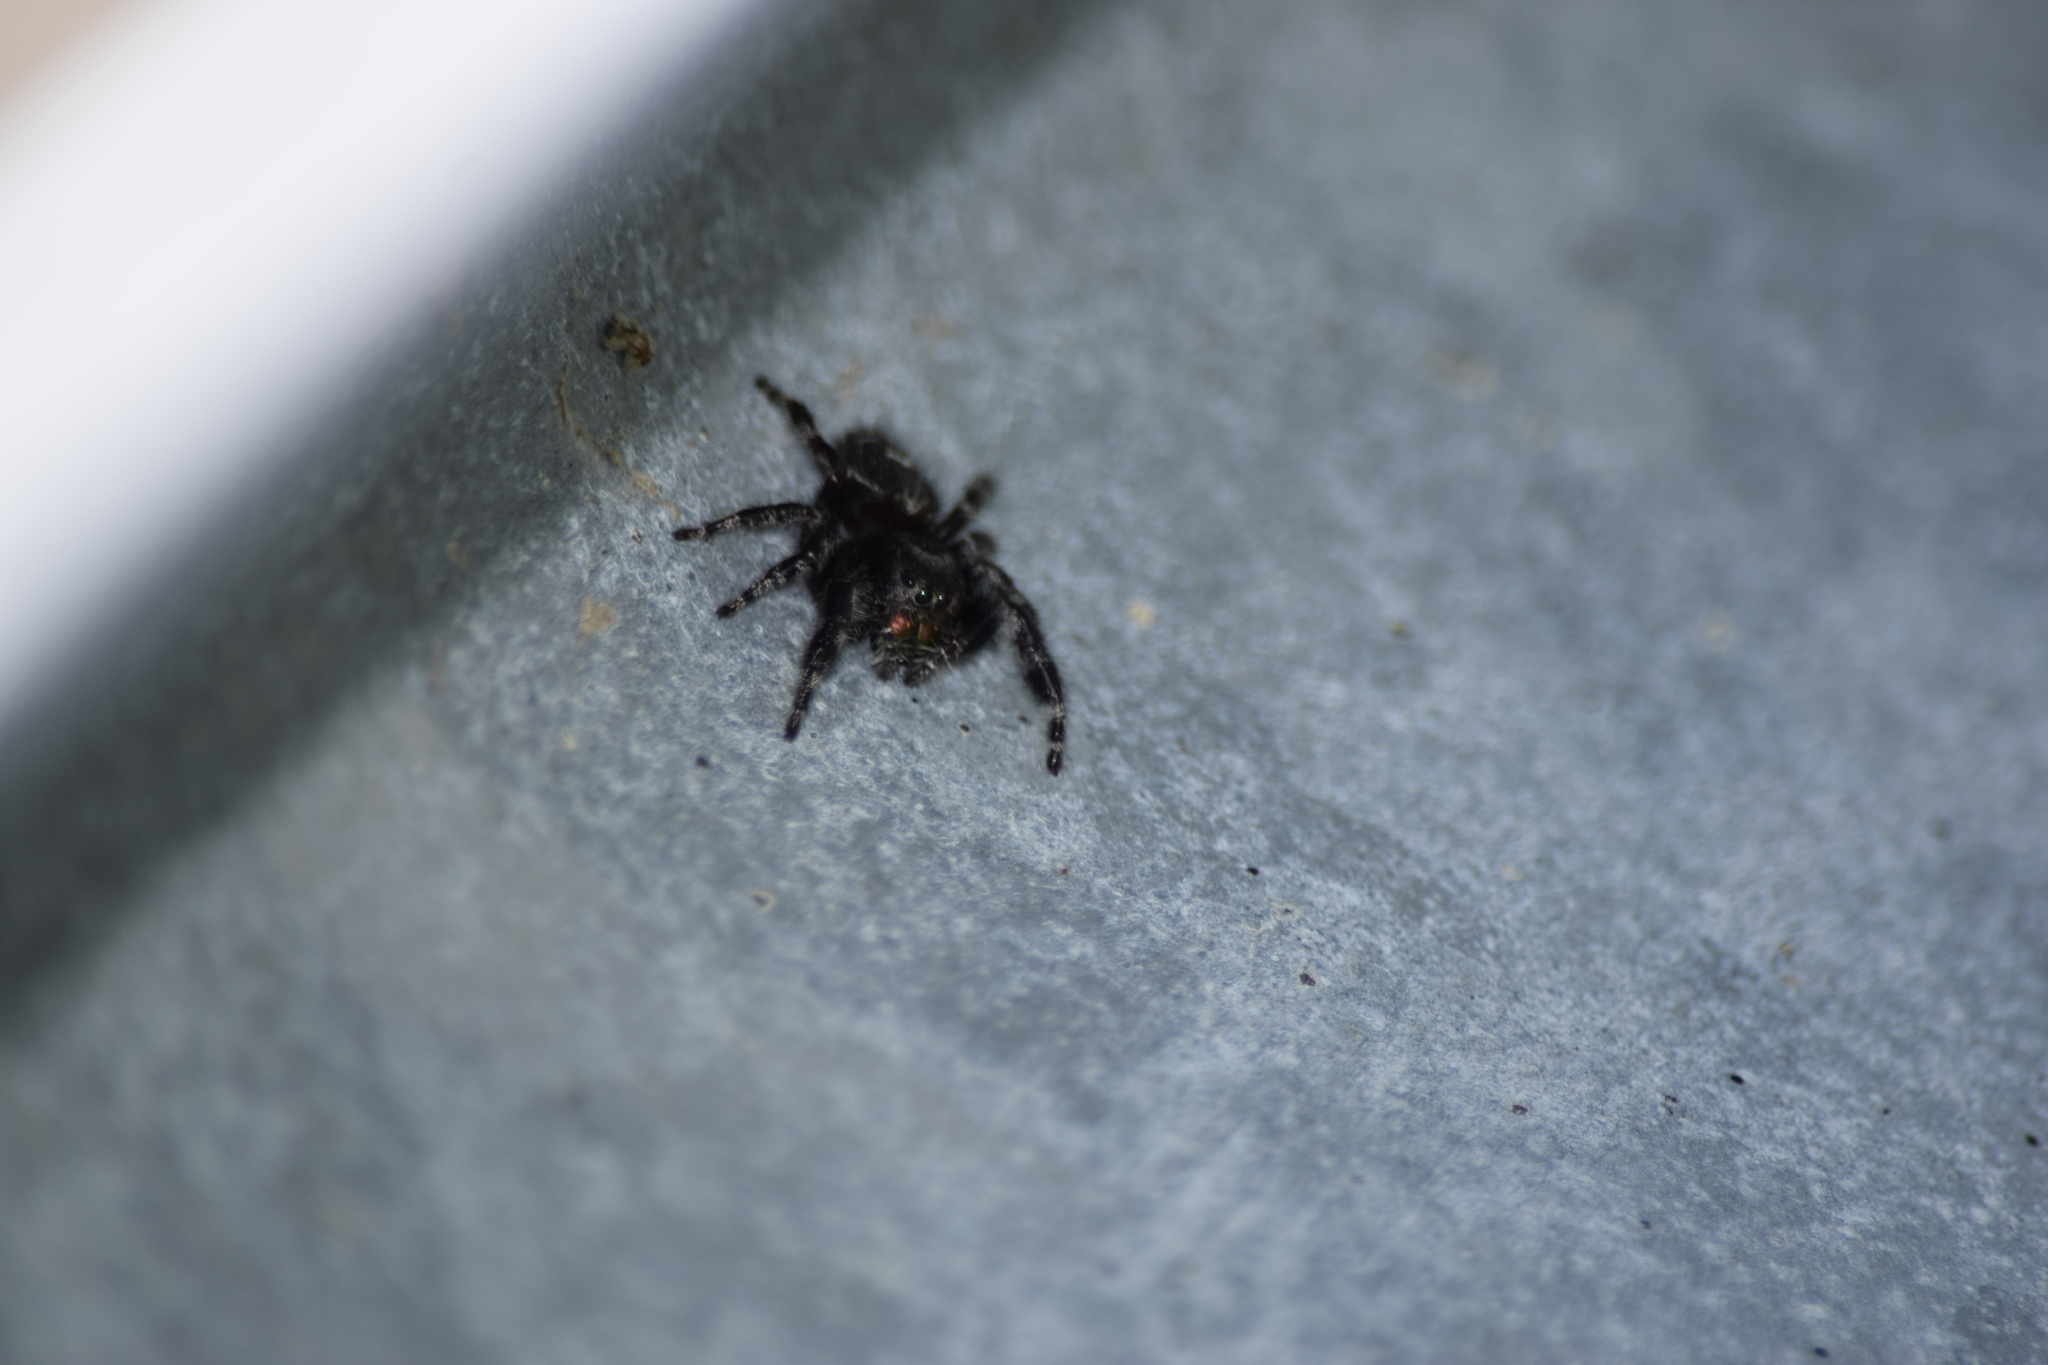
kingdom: Animalia
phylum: Arthropoda
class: Arachnida
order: Araneae
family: Salticidae
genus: Phidippus
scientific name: Phidippus audax
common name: Bold jumper
